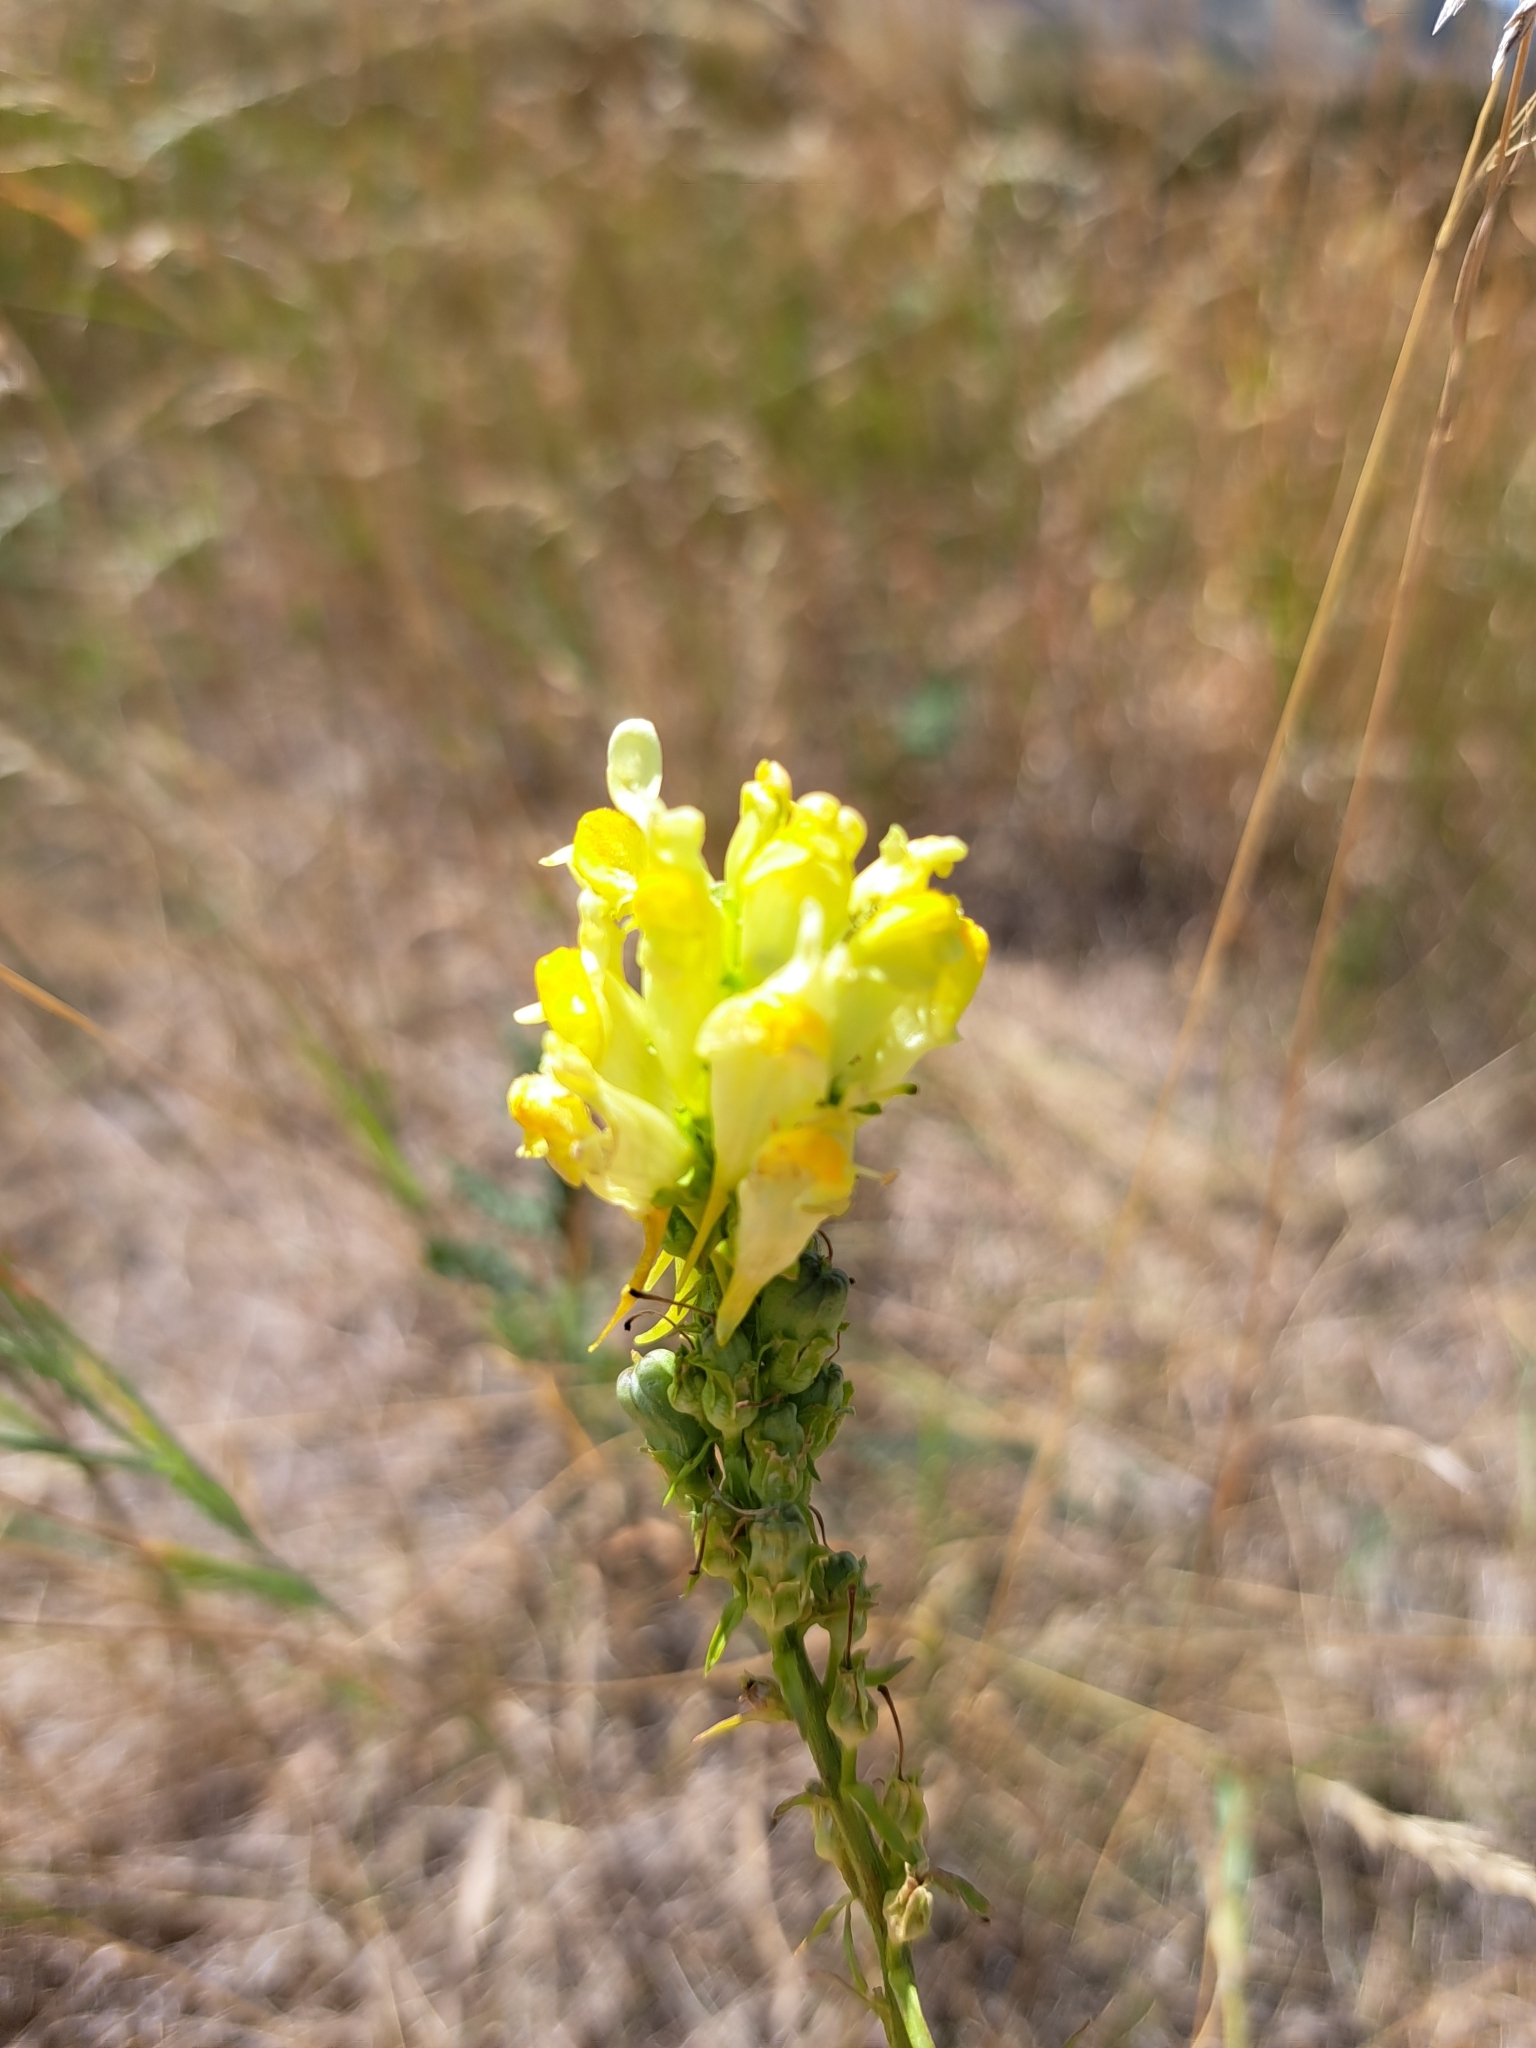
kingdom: Plantae
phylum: Tracheophyta
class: Magnoliopsida
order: Lamiales
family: Plantaginaceae
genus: Linaria
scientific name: Linaria vulgaris
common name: Butter and eggs
